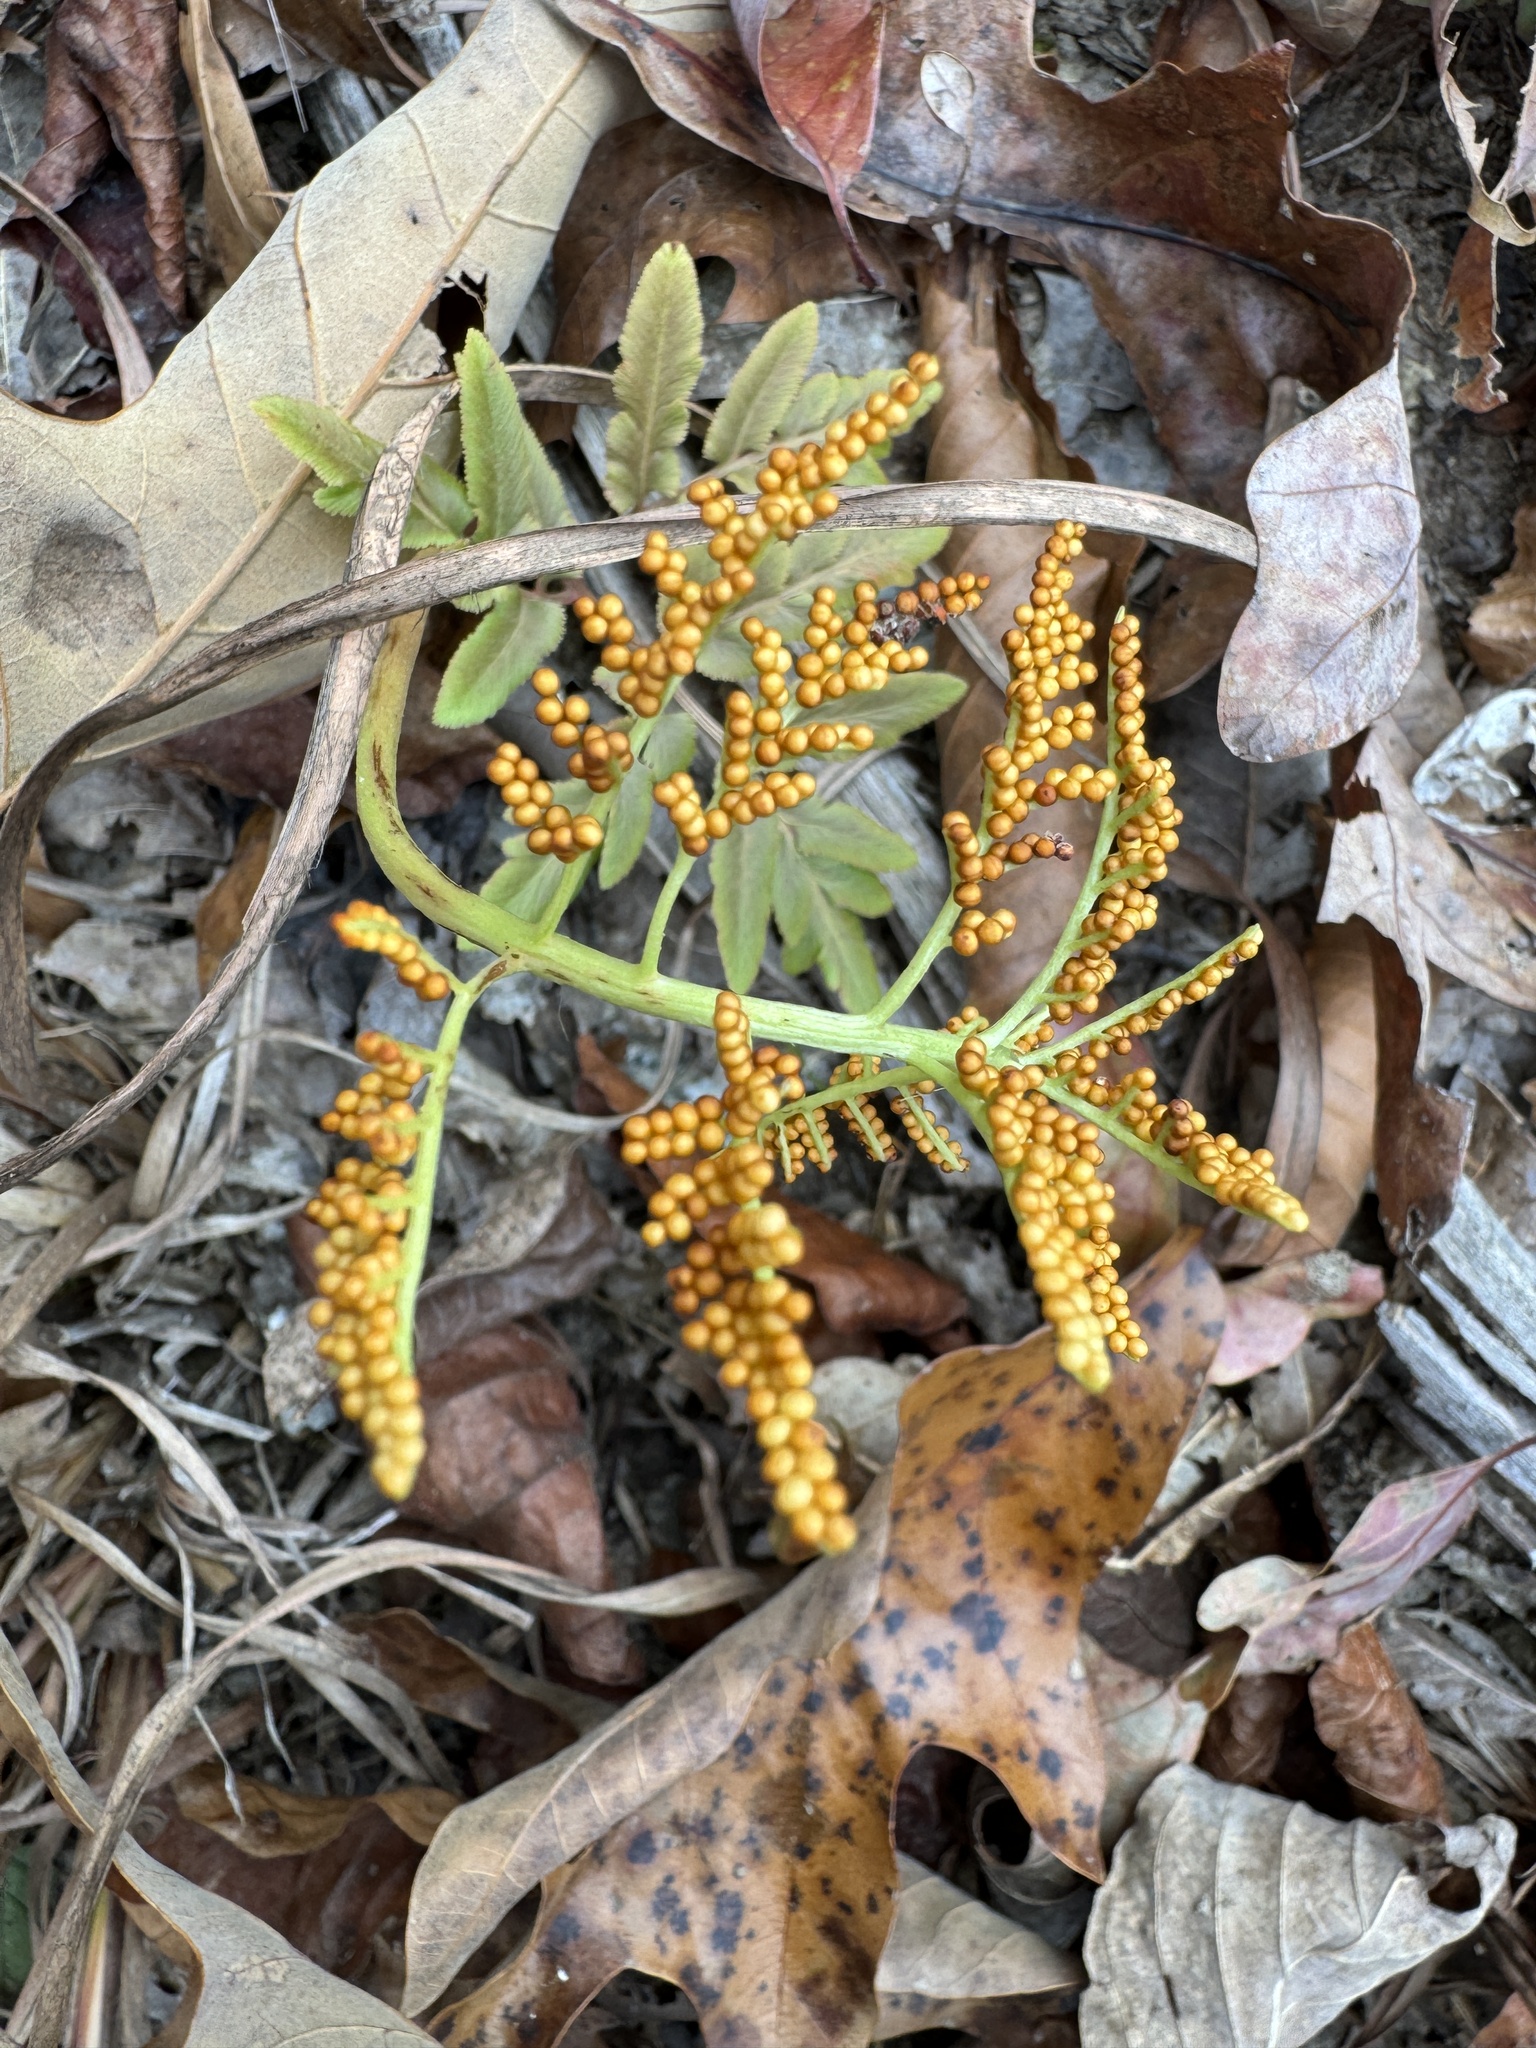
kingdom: Plantae
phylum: Tracheophyta
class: Polypodiopsida
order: Ophioglossales
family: Ophioglossaceae
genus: Sceptridium
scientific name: Sceptridium dissectum
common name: Cut-leaved grapefern
